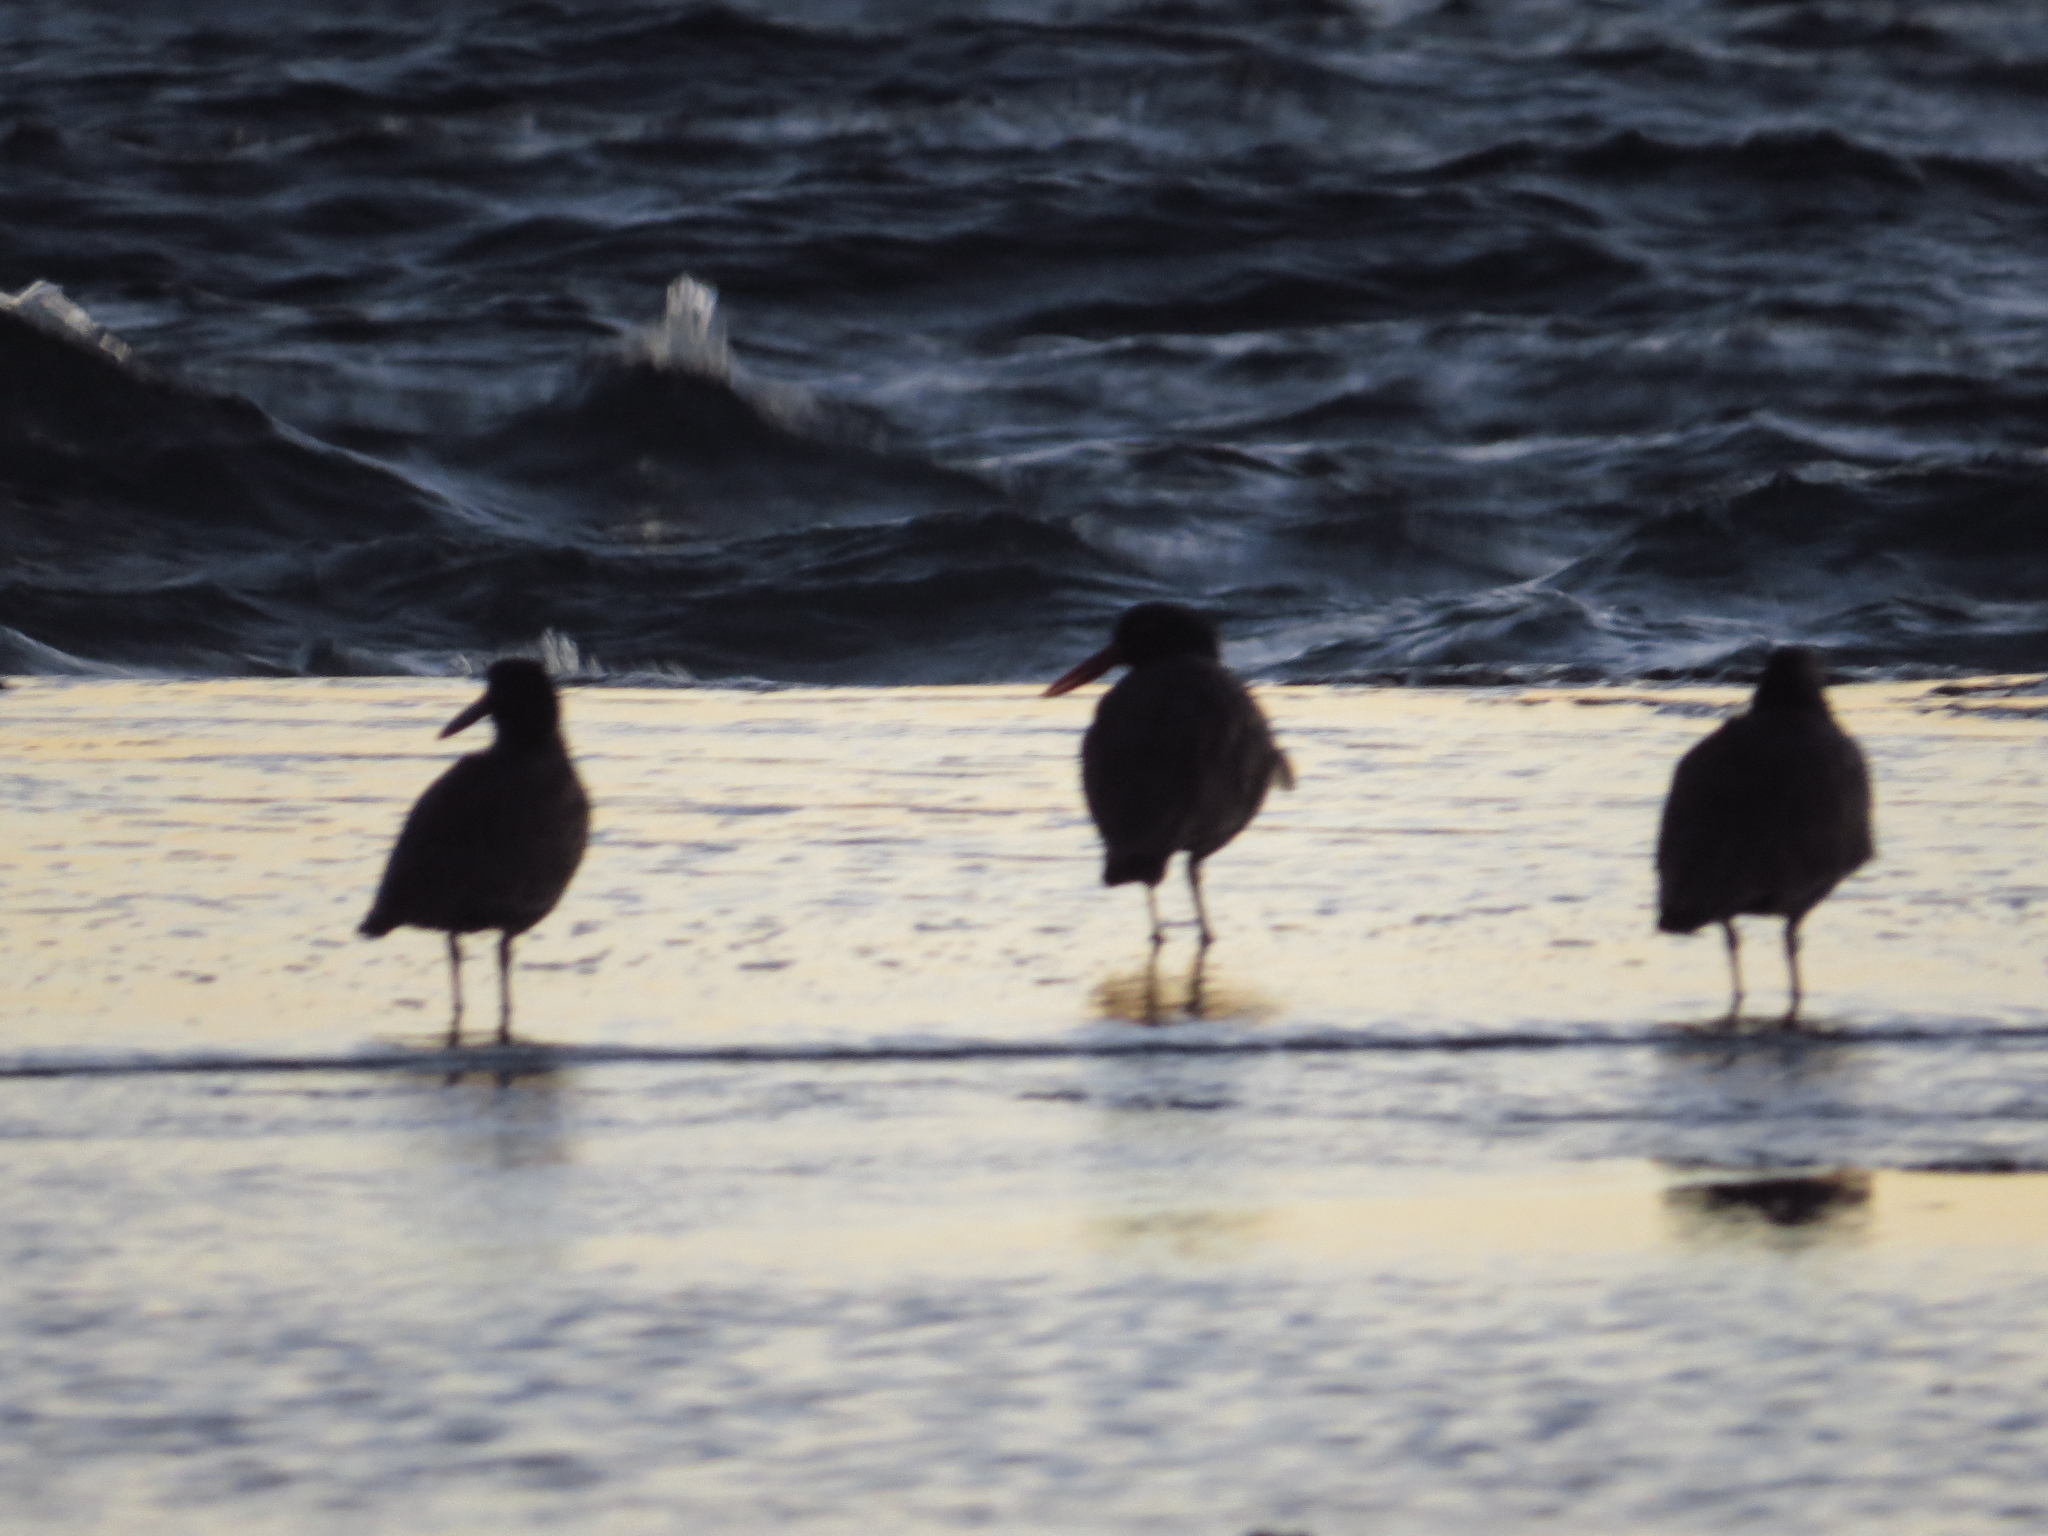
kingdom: Animalia
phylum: Chordata
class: Aves
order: Charadriiformes
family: Haematopodidae
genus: Haematopus
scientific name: Haematopus ater
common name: Blackish oystercatcher
